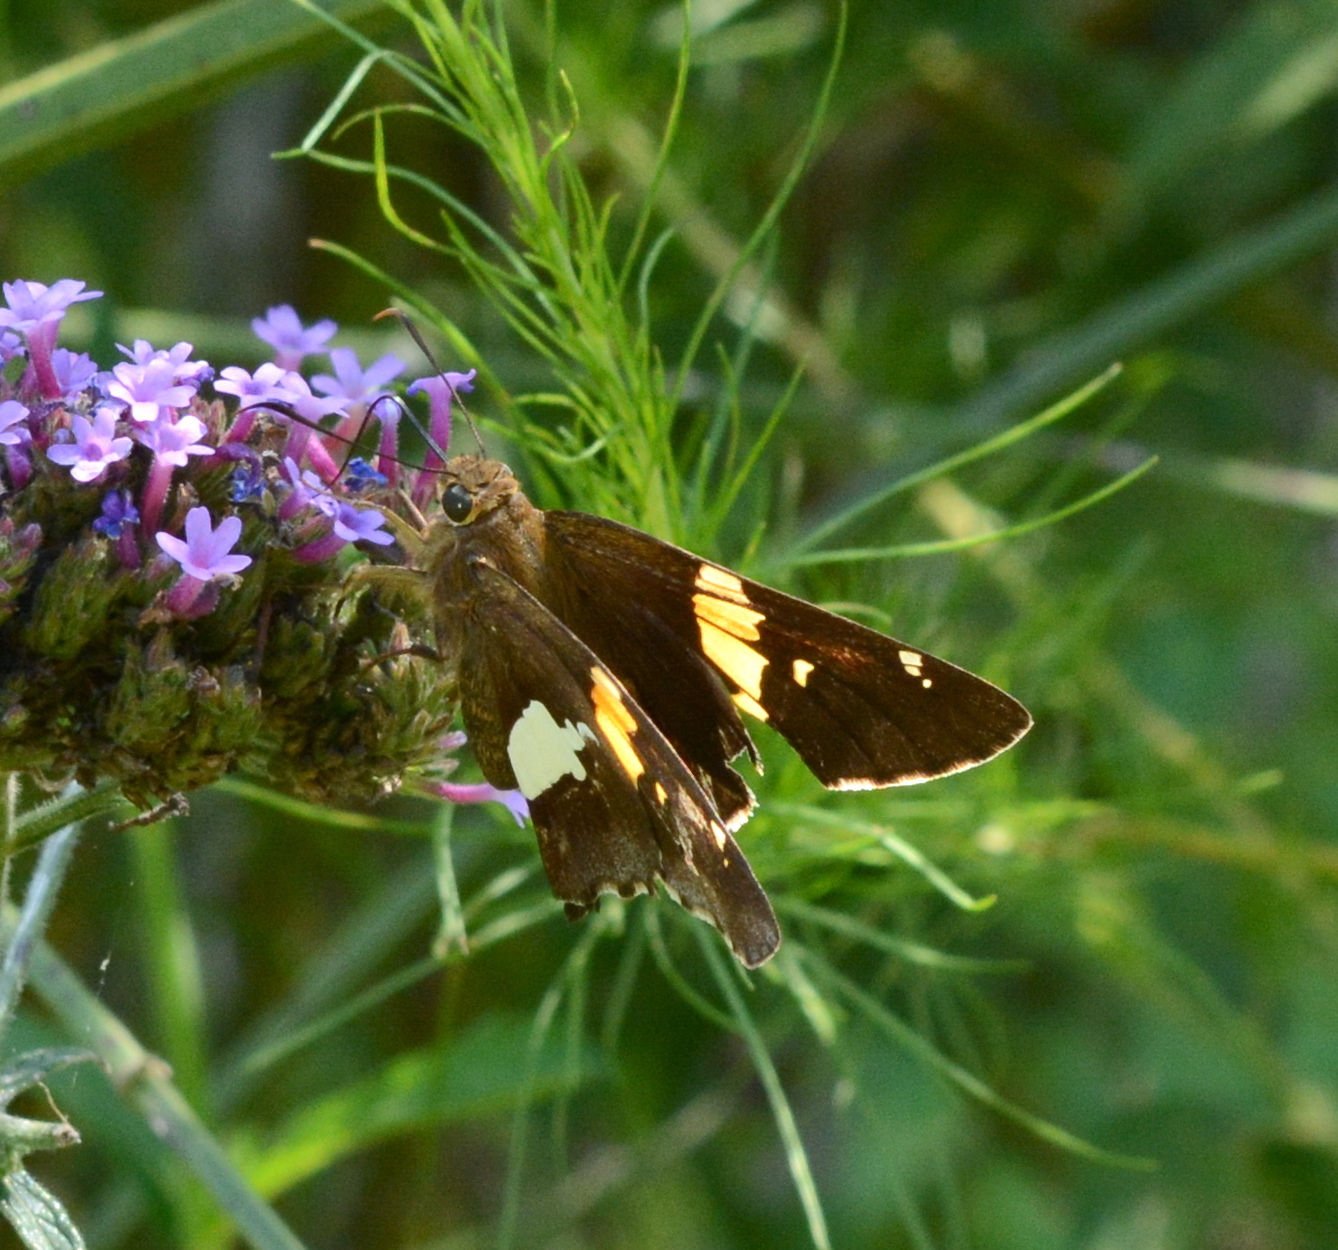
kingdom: Animalia
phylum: Arthropoda
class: Insecta
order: Lepidoptera
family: Hesperiidae
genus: Epargyreus
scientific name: Epargyreus clarus
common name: Silver-spotted skipper
